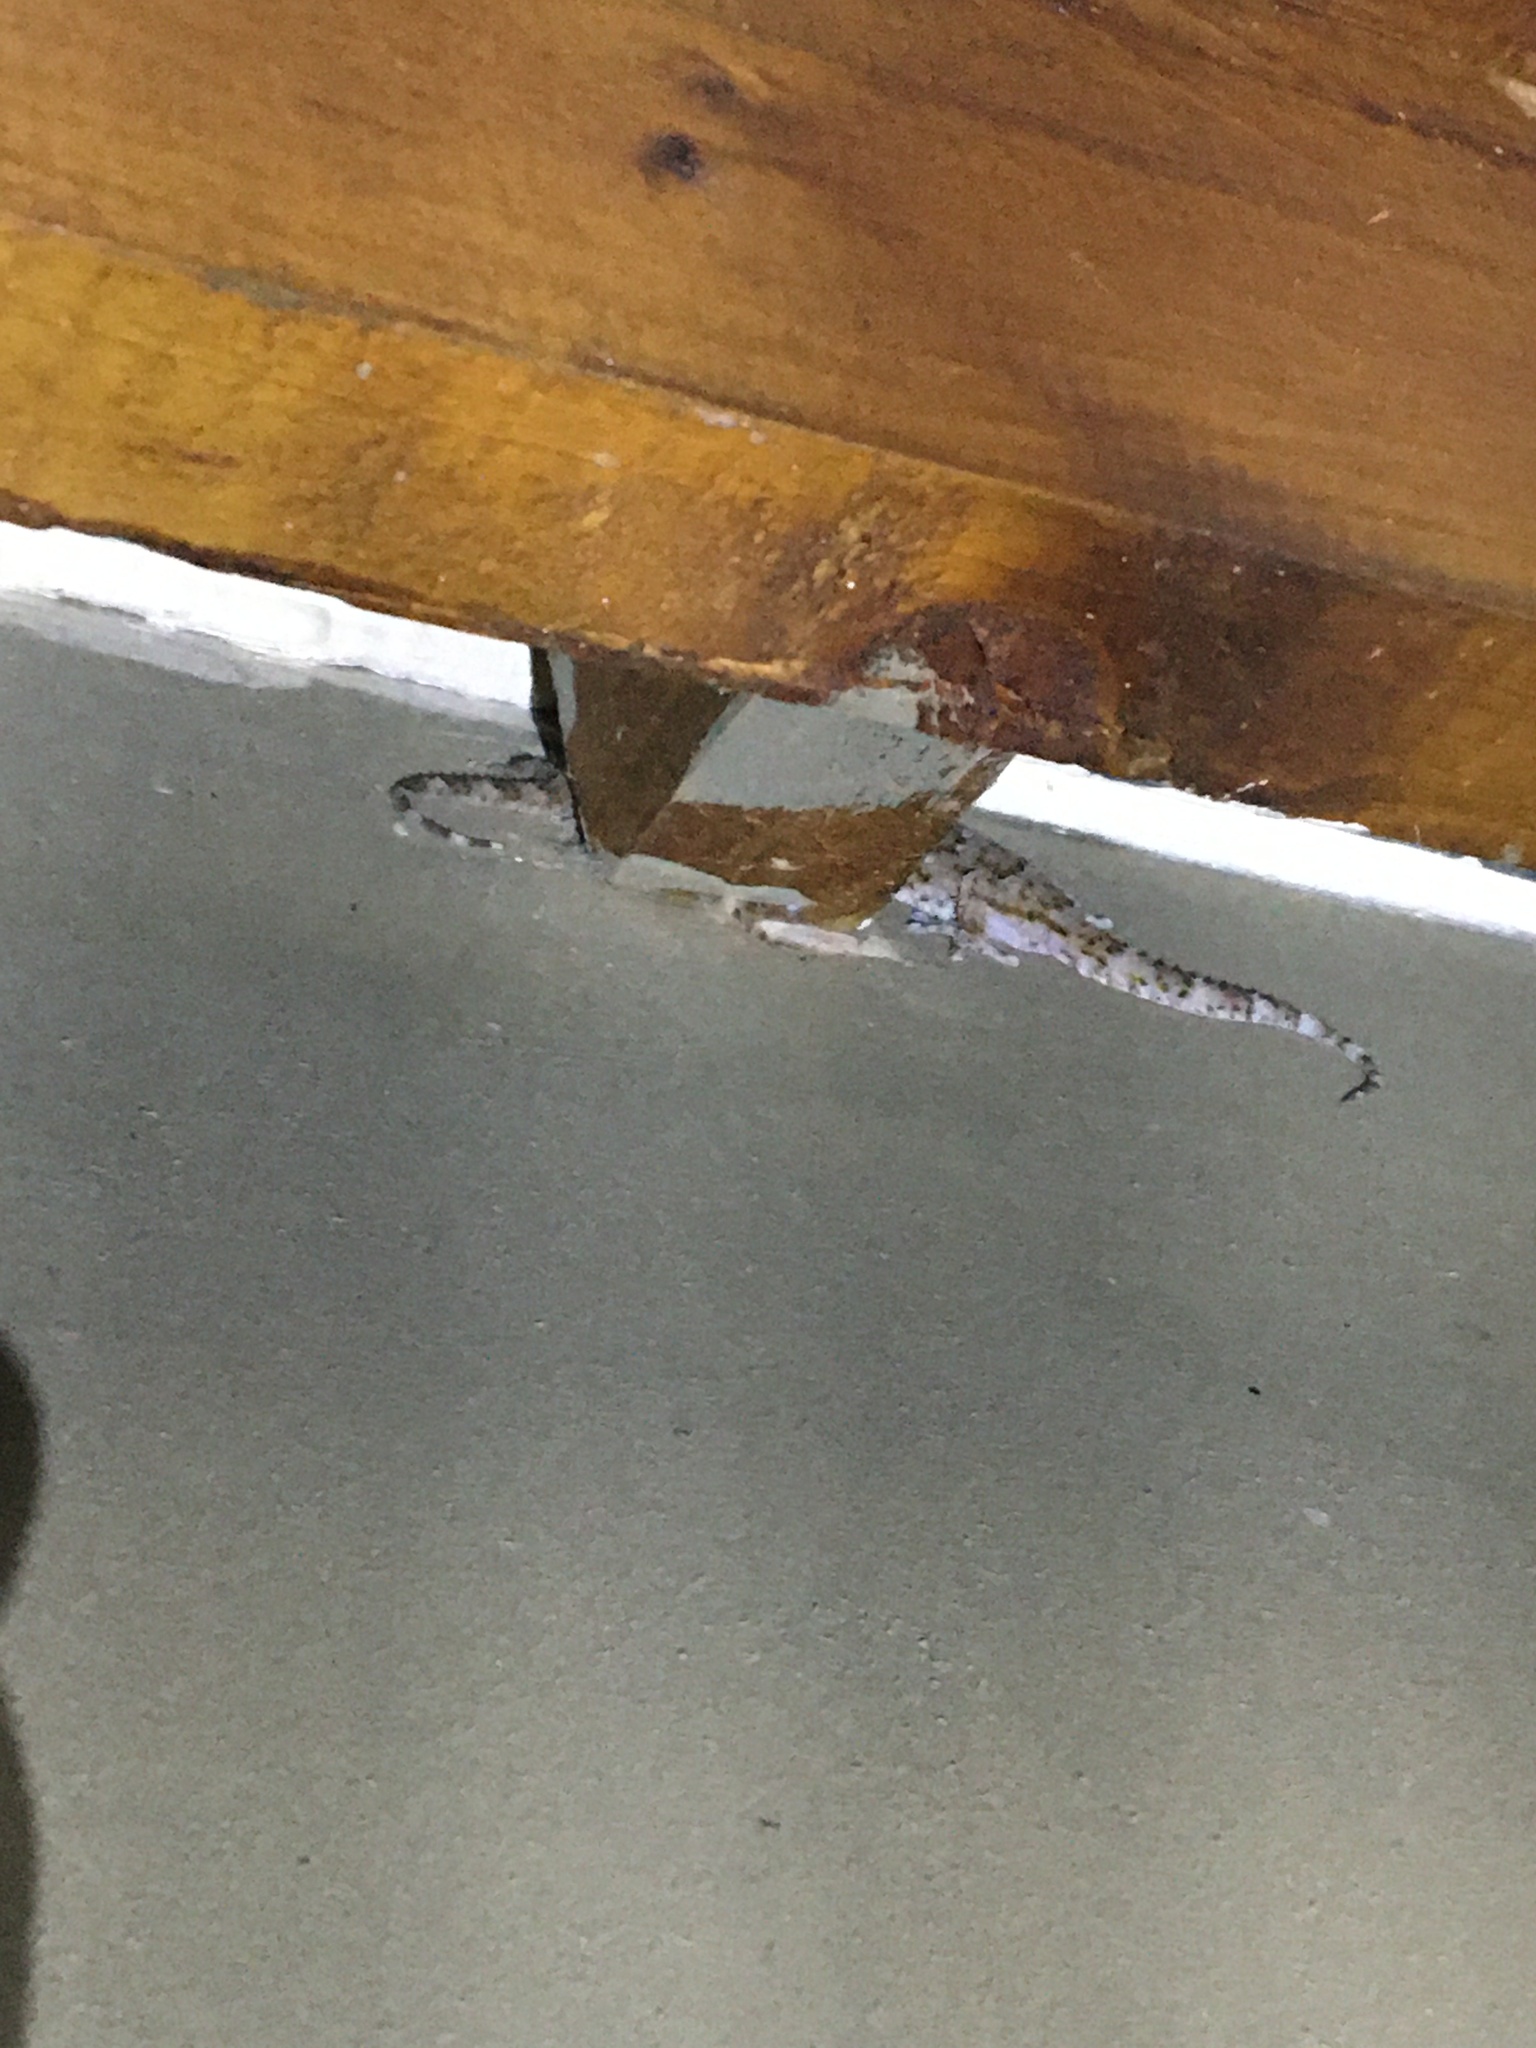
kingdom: Animalia
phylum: Chordata
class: Squamata
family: Gekkonidae
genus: Chondrodactylus
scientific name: Chondrodactylus bibronii
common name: Bibron's gecko
